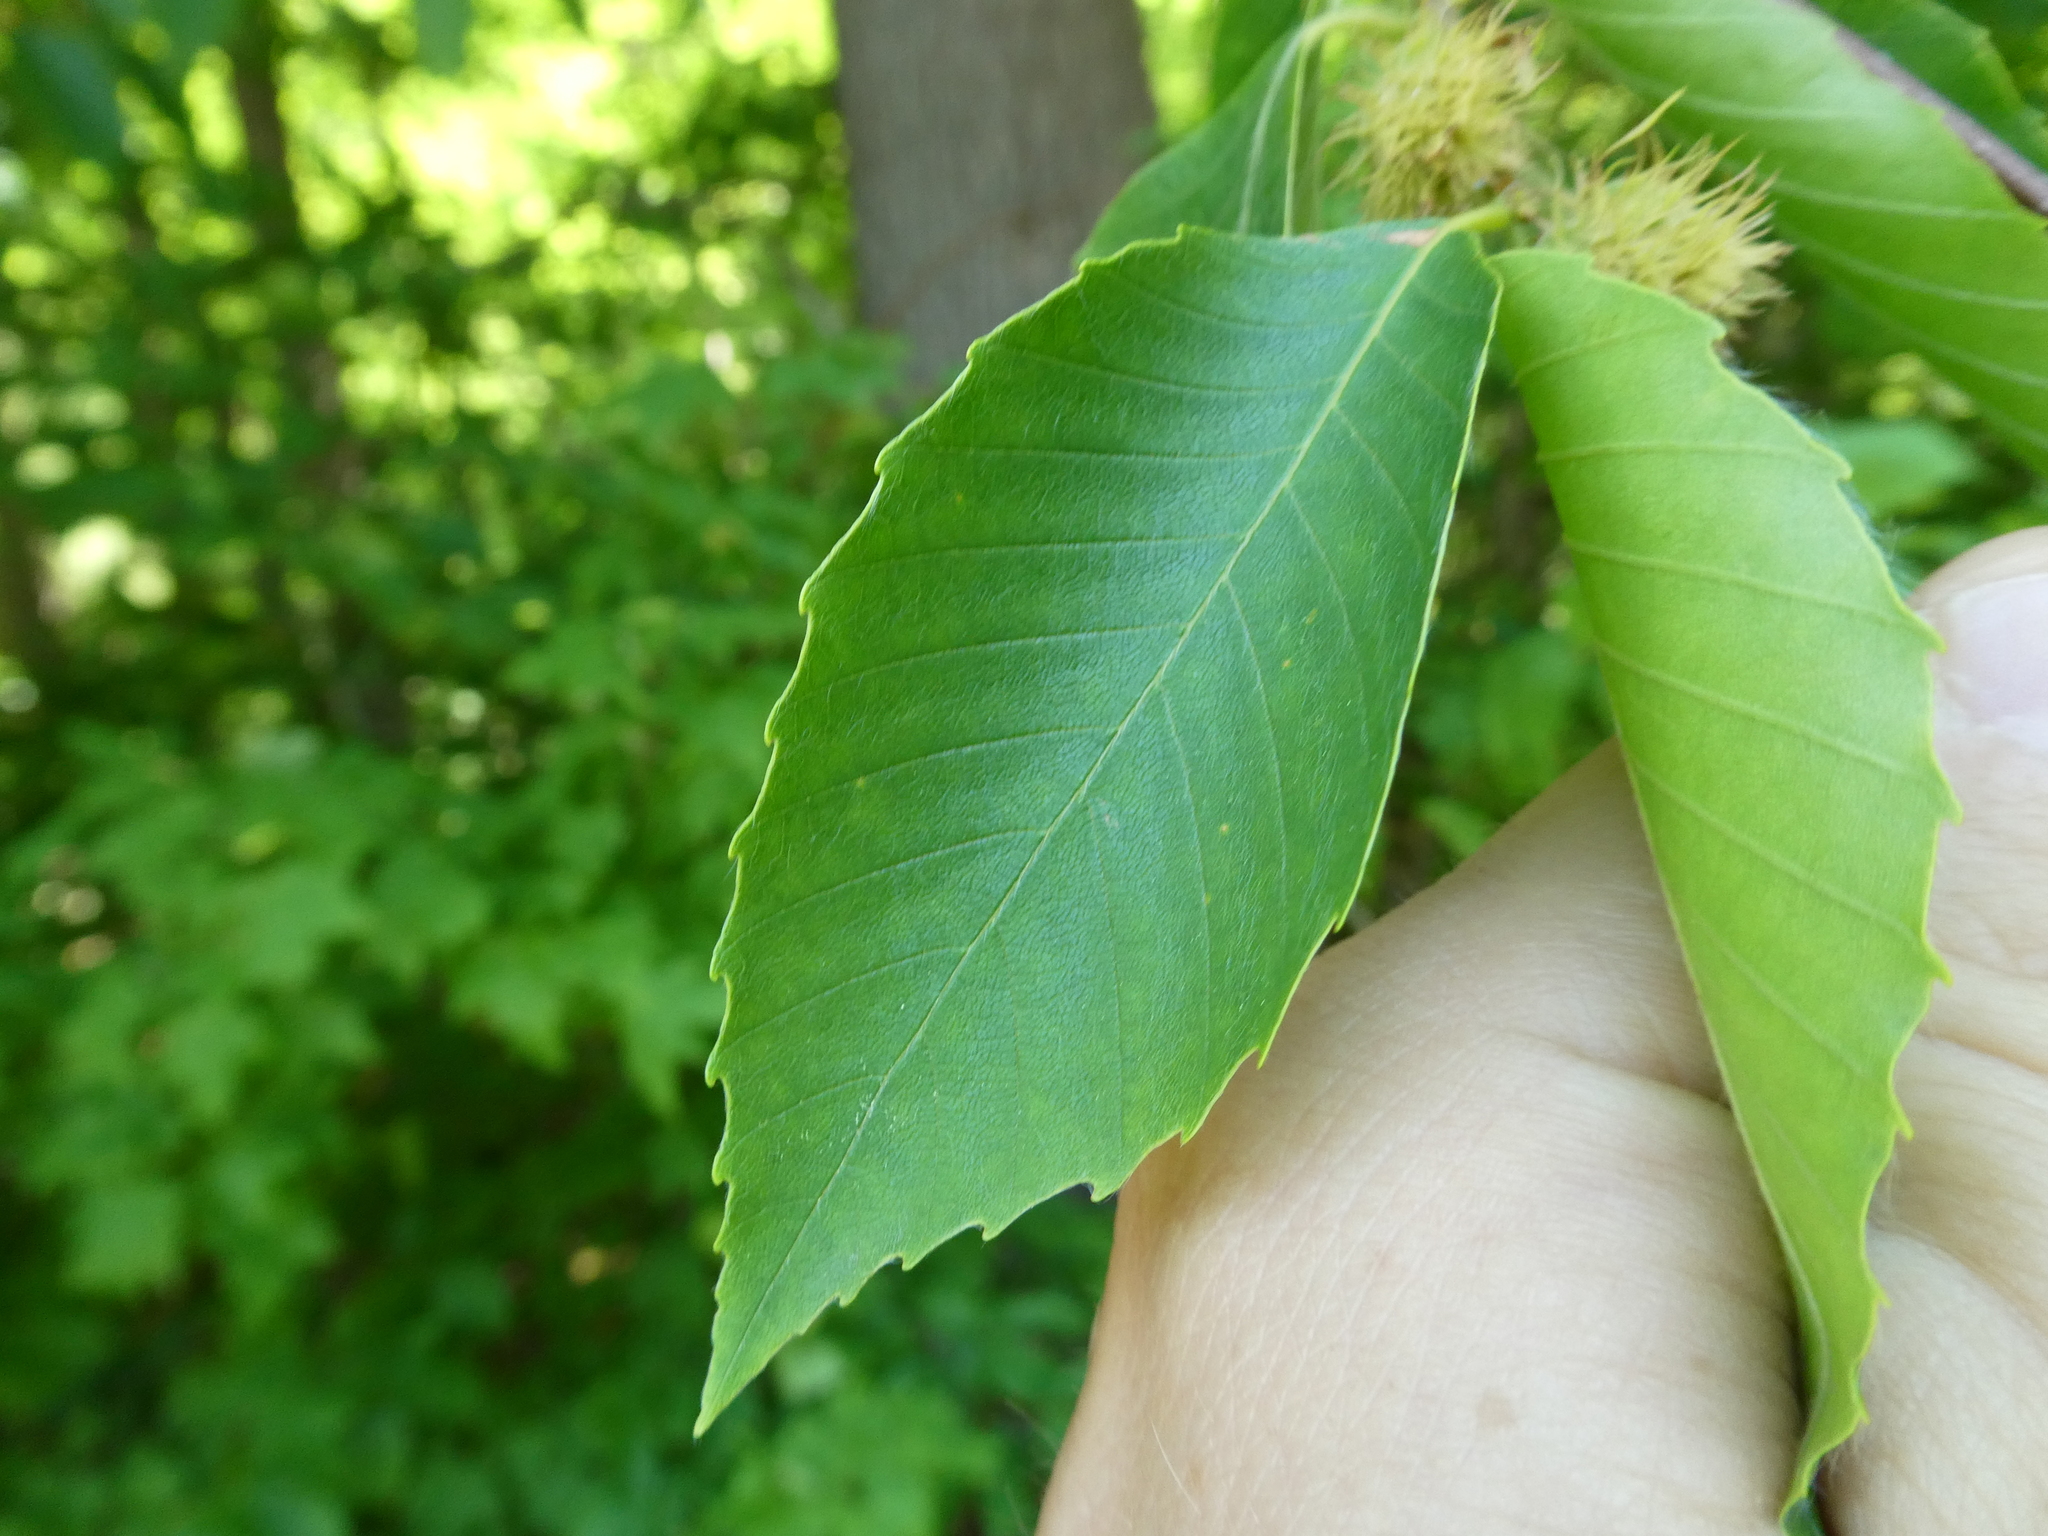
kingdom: Plantae
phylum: Tracheophyta
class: Magnoliopsida
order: Fagales
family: Fagaceae
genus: Fagus
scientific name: Fagus grandifolia
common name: American beech
